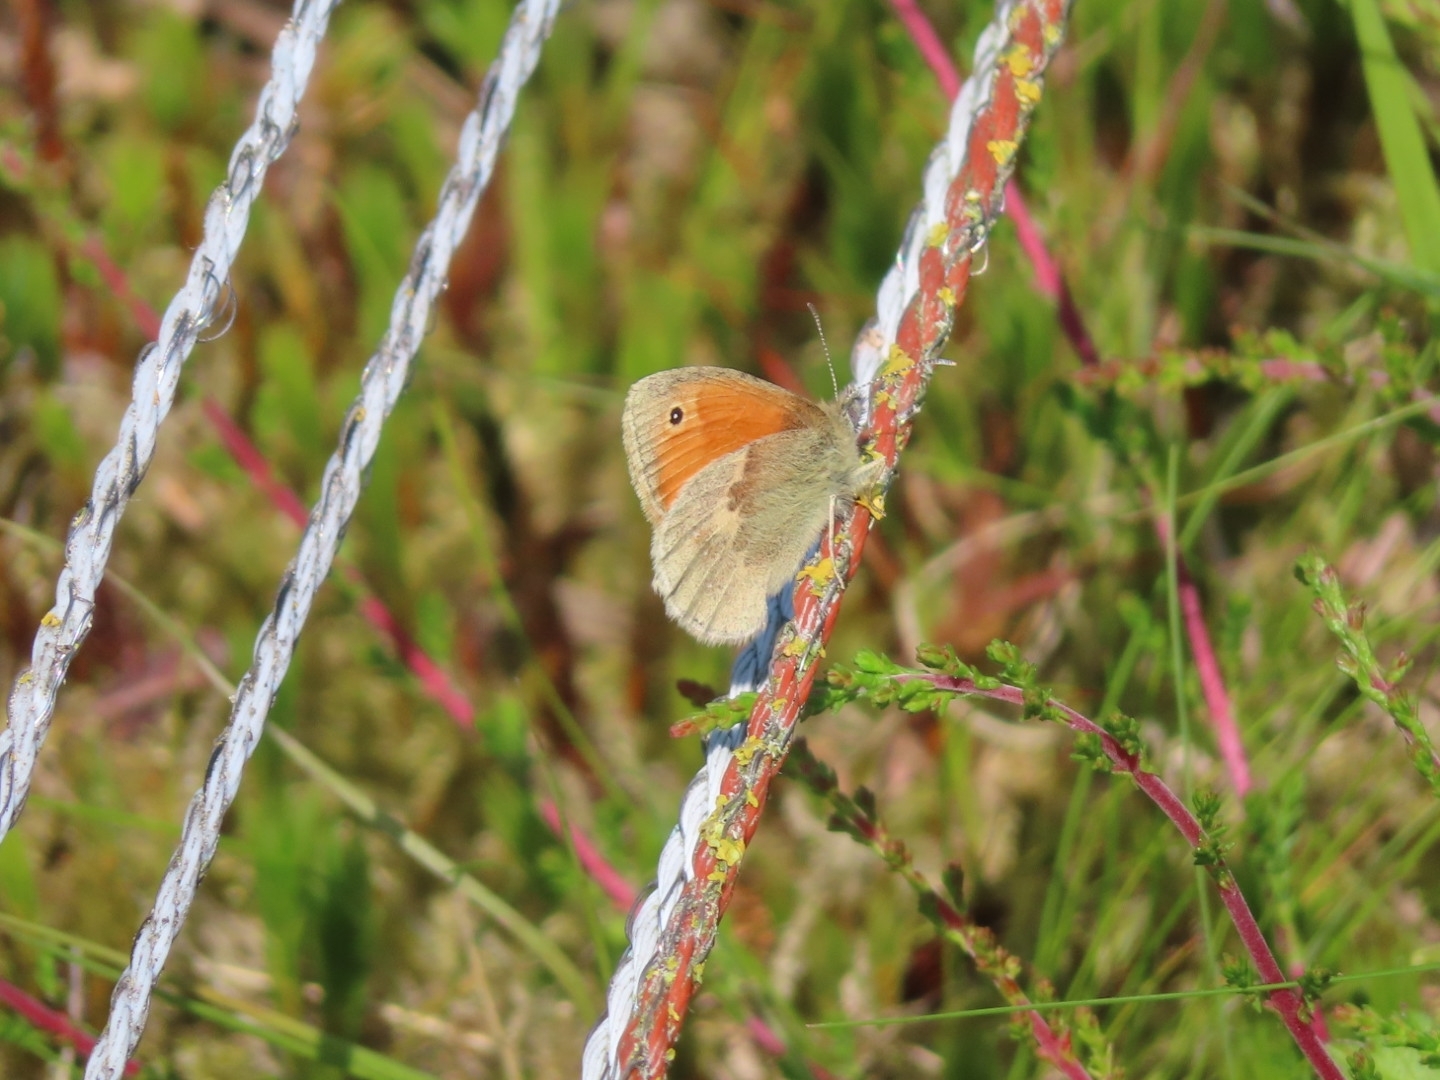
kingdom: Animalia
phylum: Arthropoda
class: Insecta
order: Lepidoptera
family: Nymphalidae
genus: Coenonympha
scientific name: Coenonympha pamphilus
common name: Small heath
